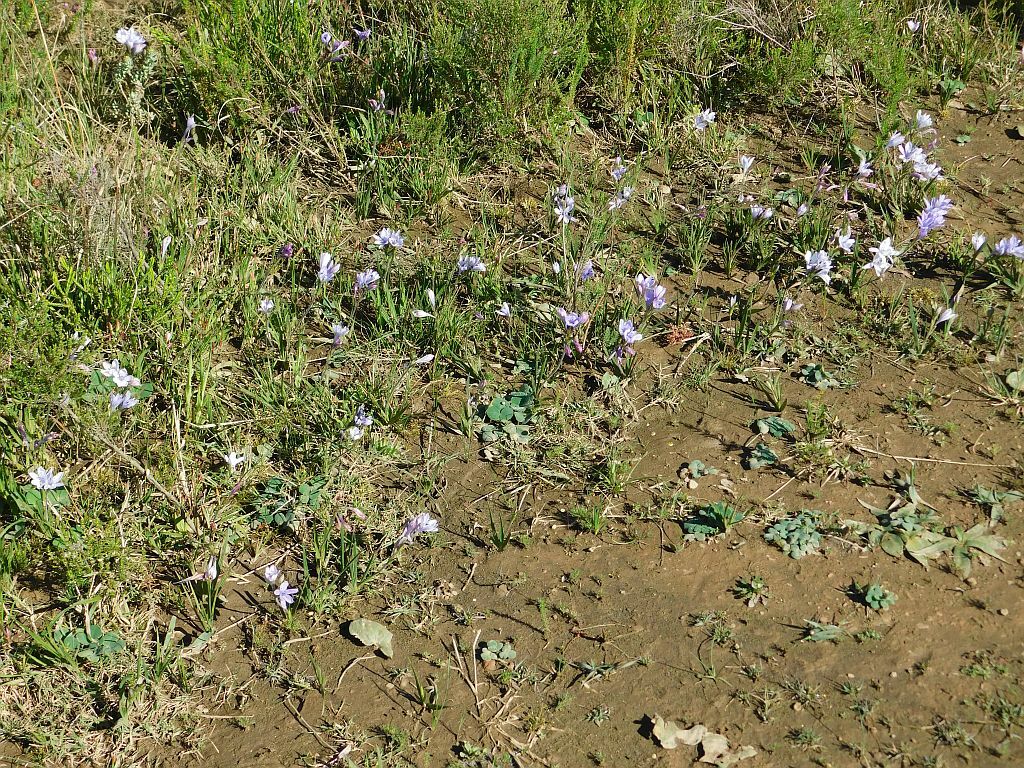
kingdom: Plantae
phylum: Tracheophyta
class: Liliopsida
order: Asparagales
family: Iridaceae
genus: Babiana
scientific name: Babiana nervosa
